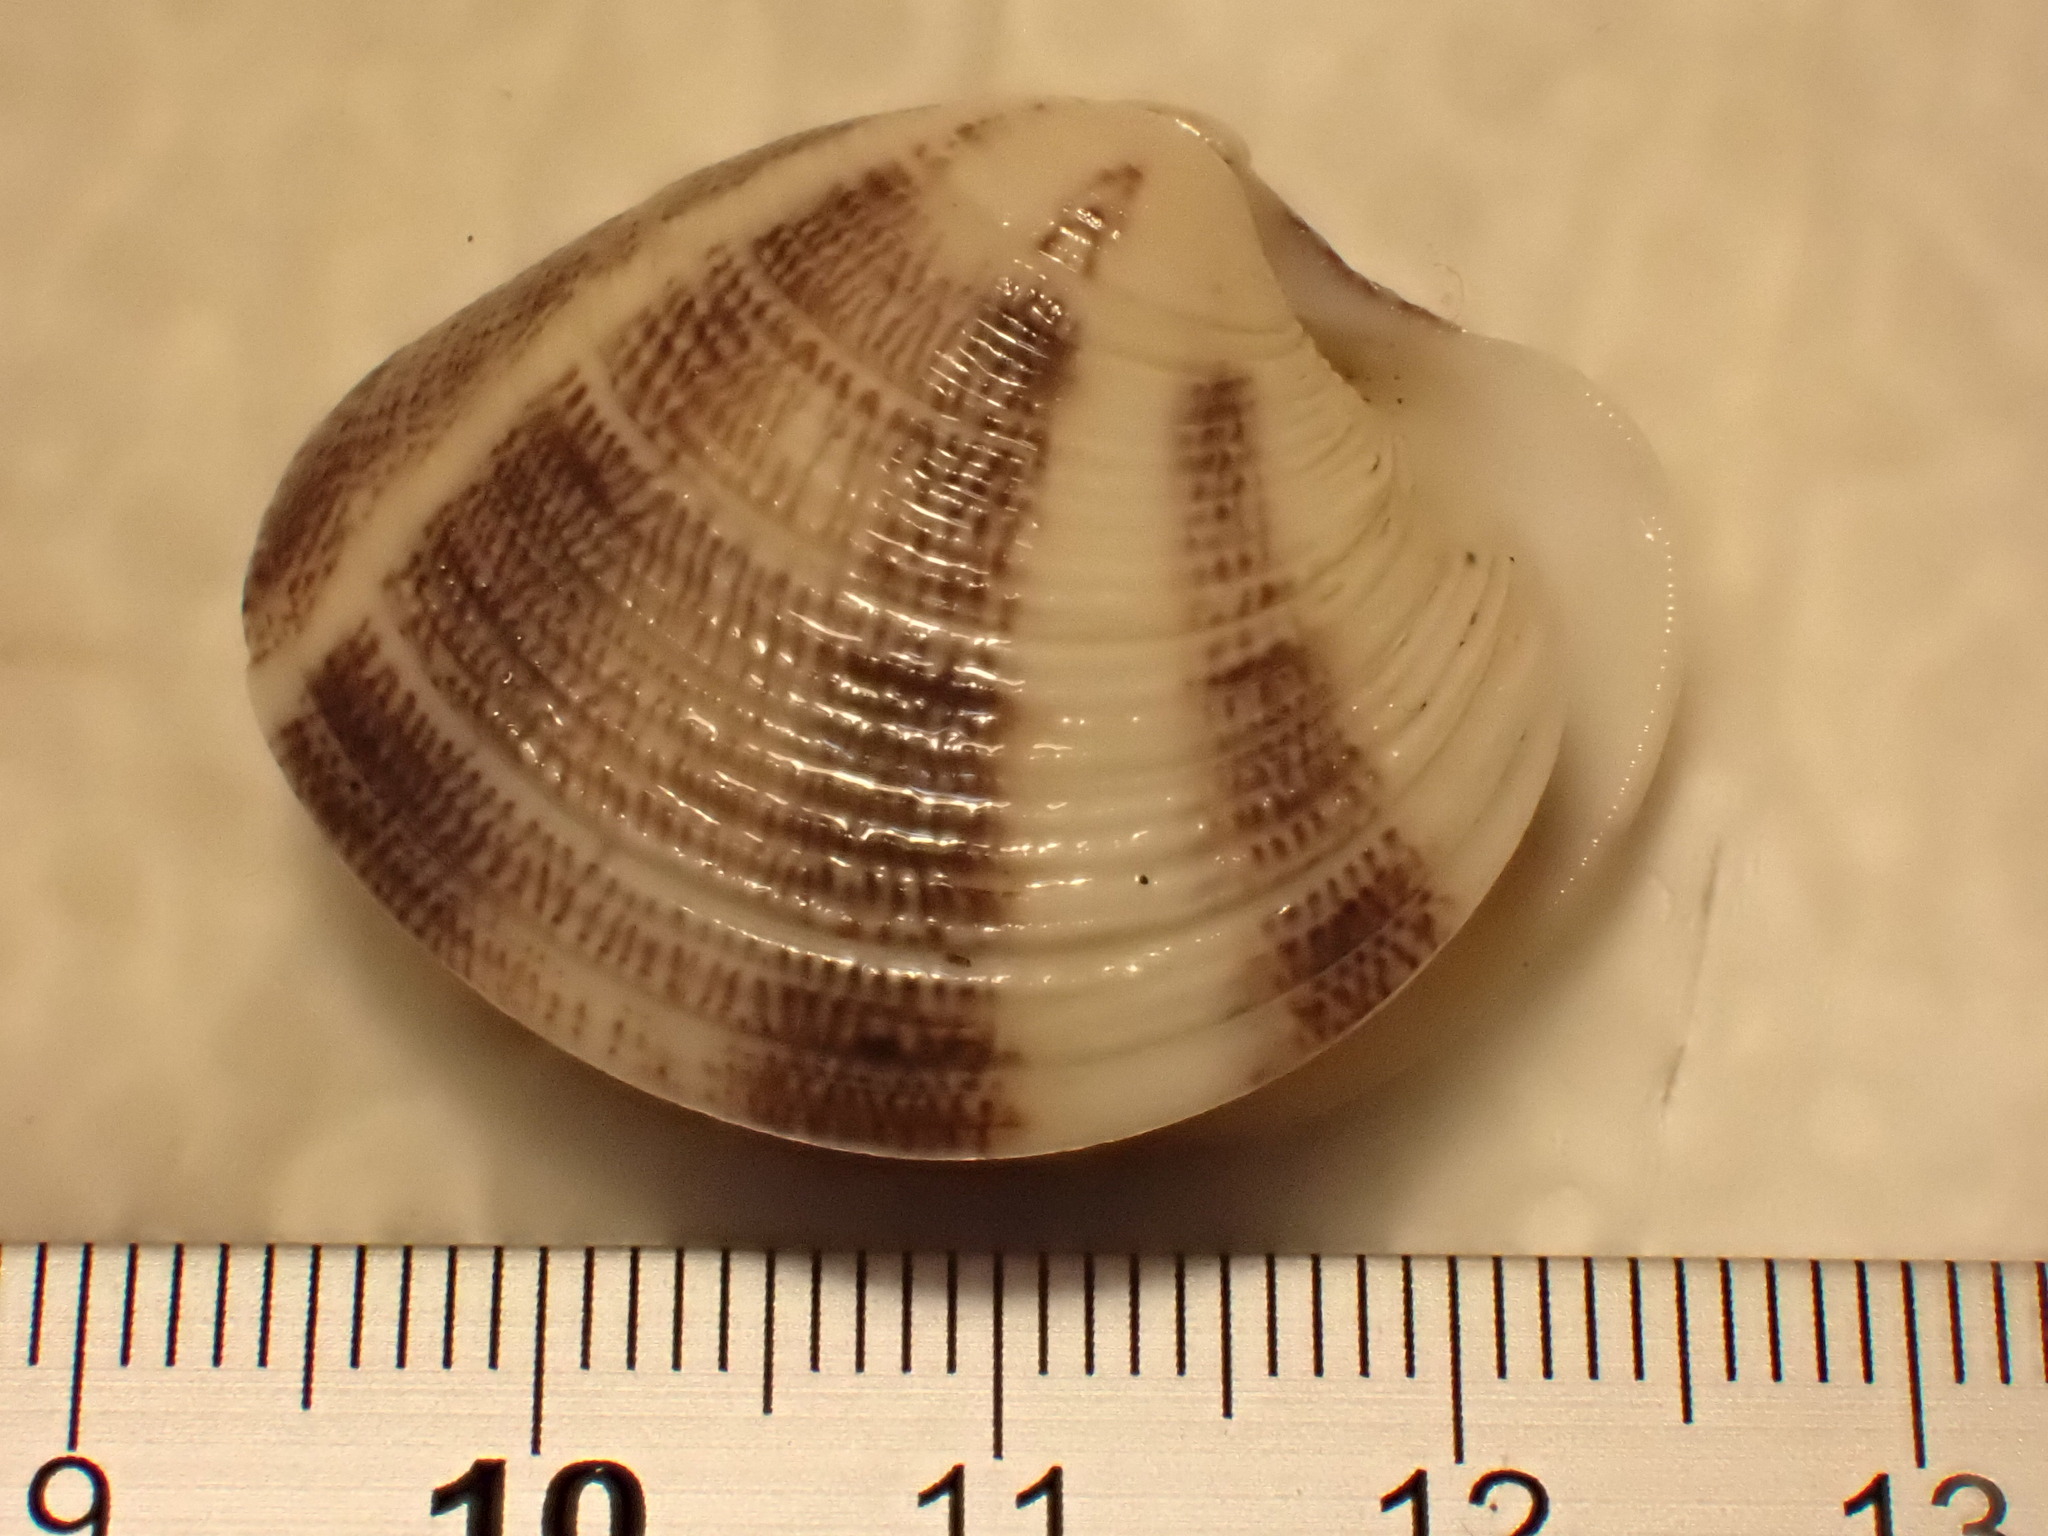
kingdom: Animalia
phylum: Mollusca
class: Bivalvia
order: Venerida
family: Veneridae
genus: Chamelea
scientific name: Chamelea striatula
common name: Striped venus
